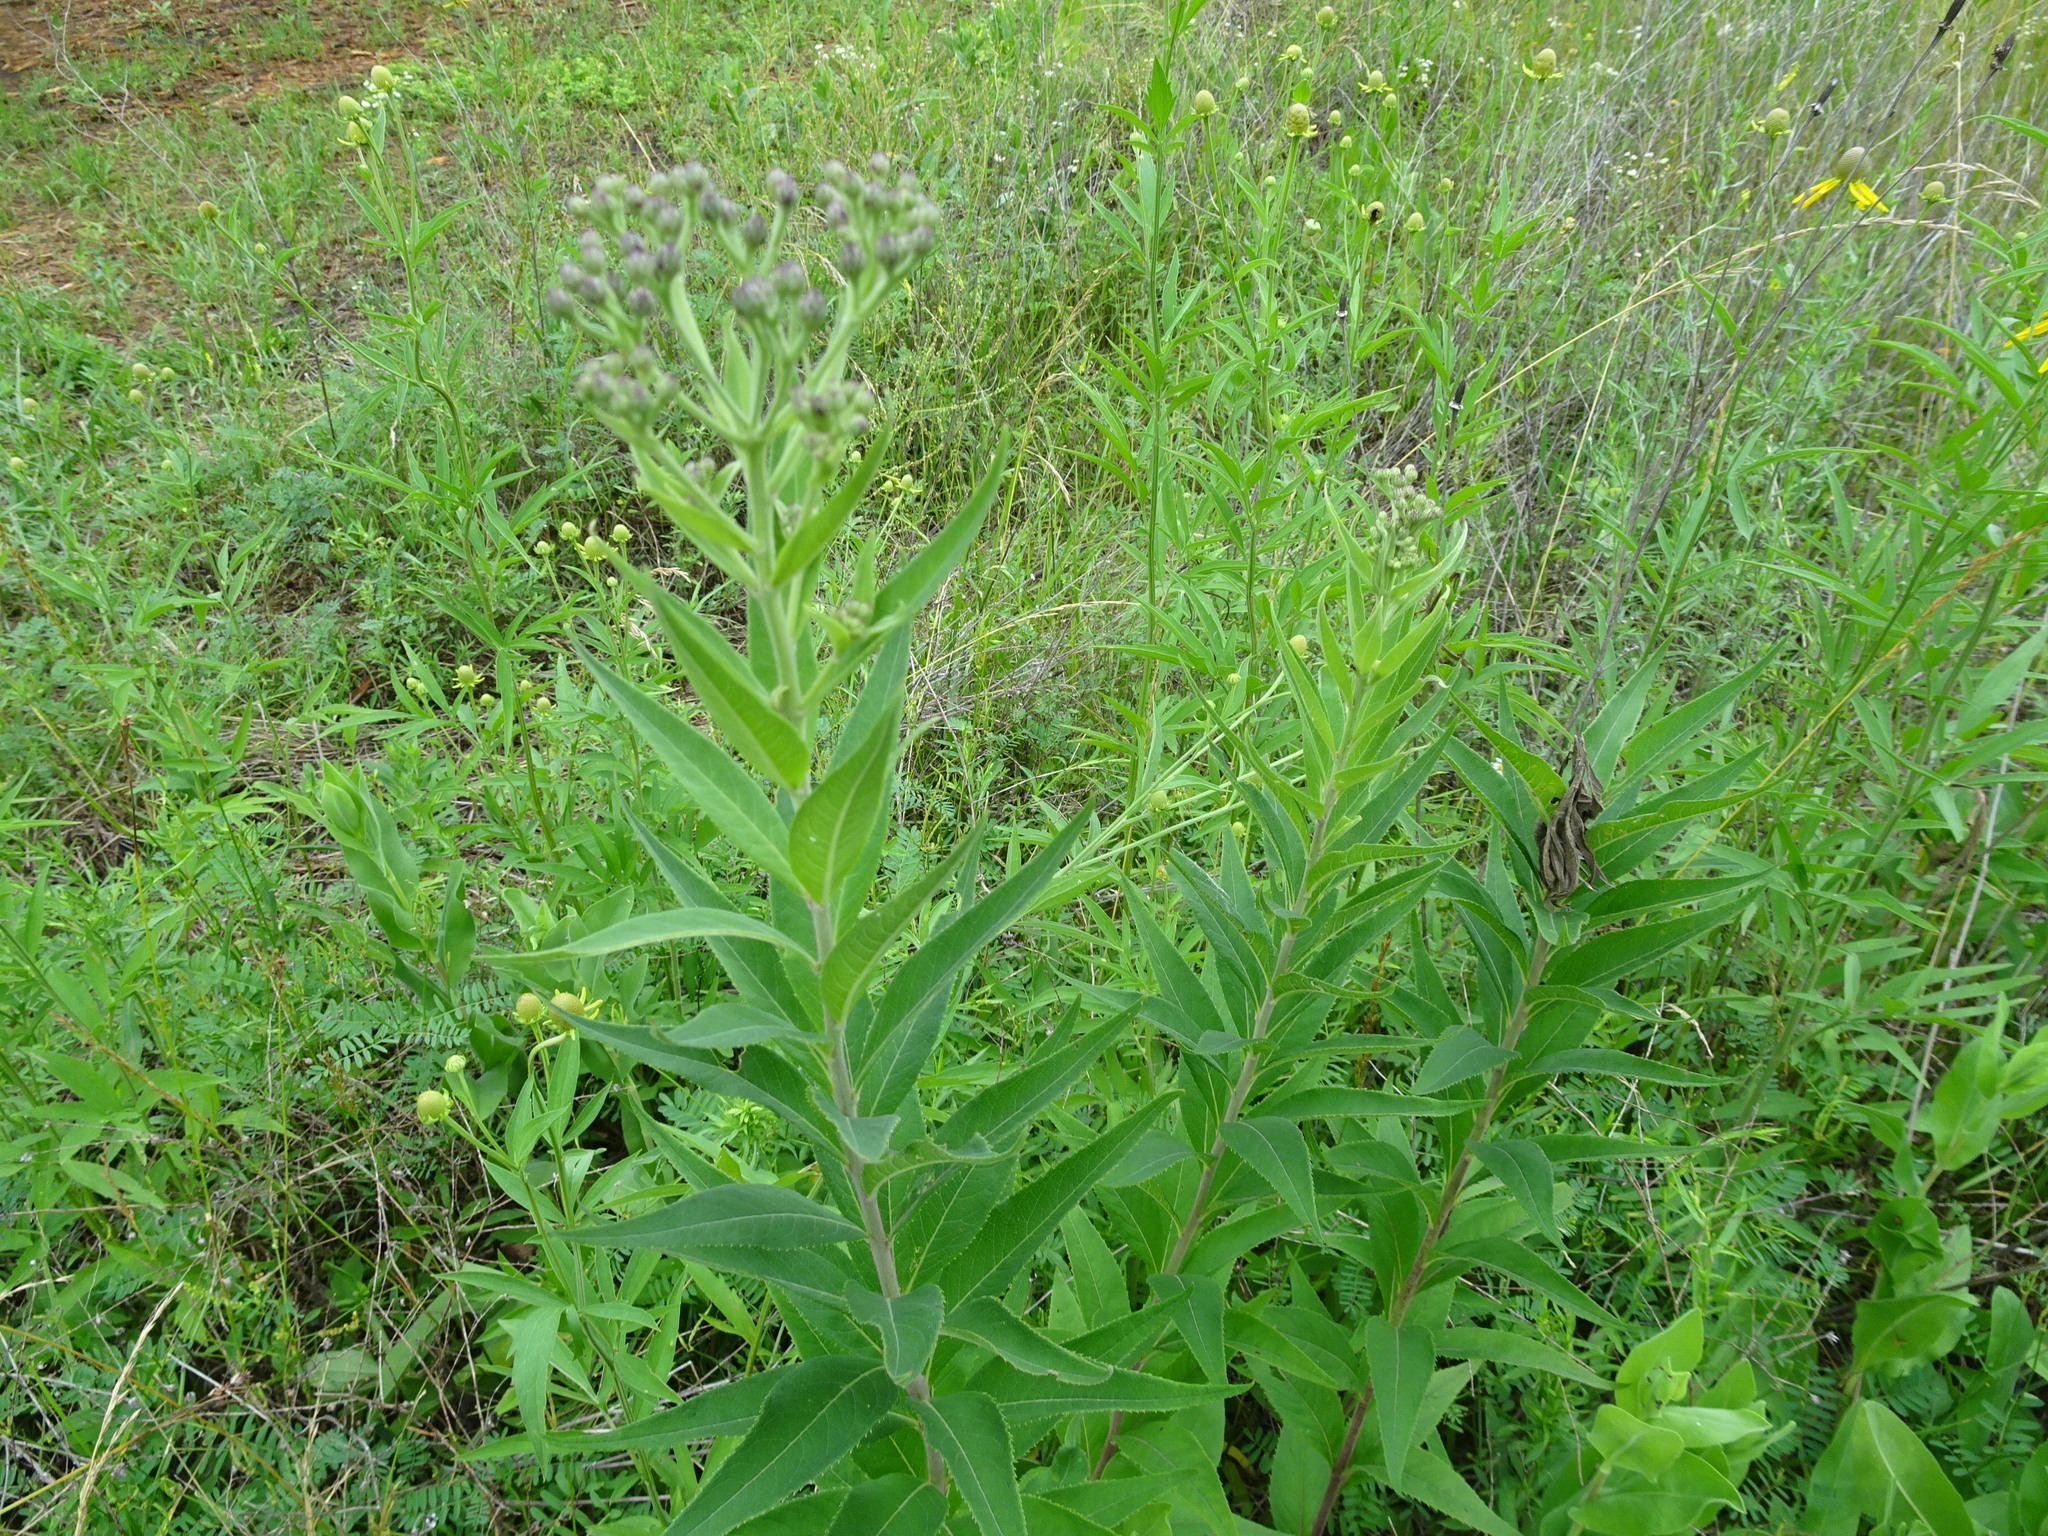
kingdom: Plantae
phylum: Tracheophyta
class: Magnoliopsida
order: Asterales
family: Asteraceae
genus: Vernonia
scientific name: Vernonia baldwinii
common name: Western ironweed
